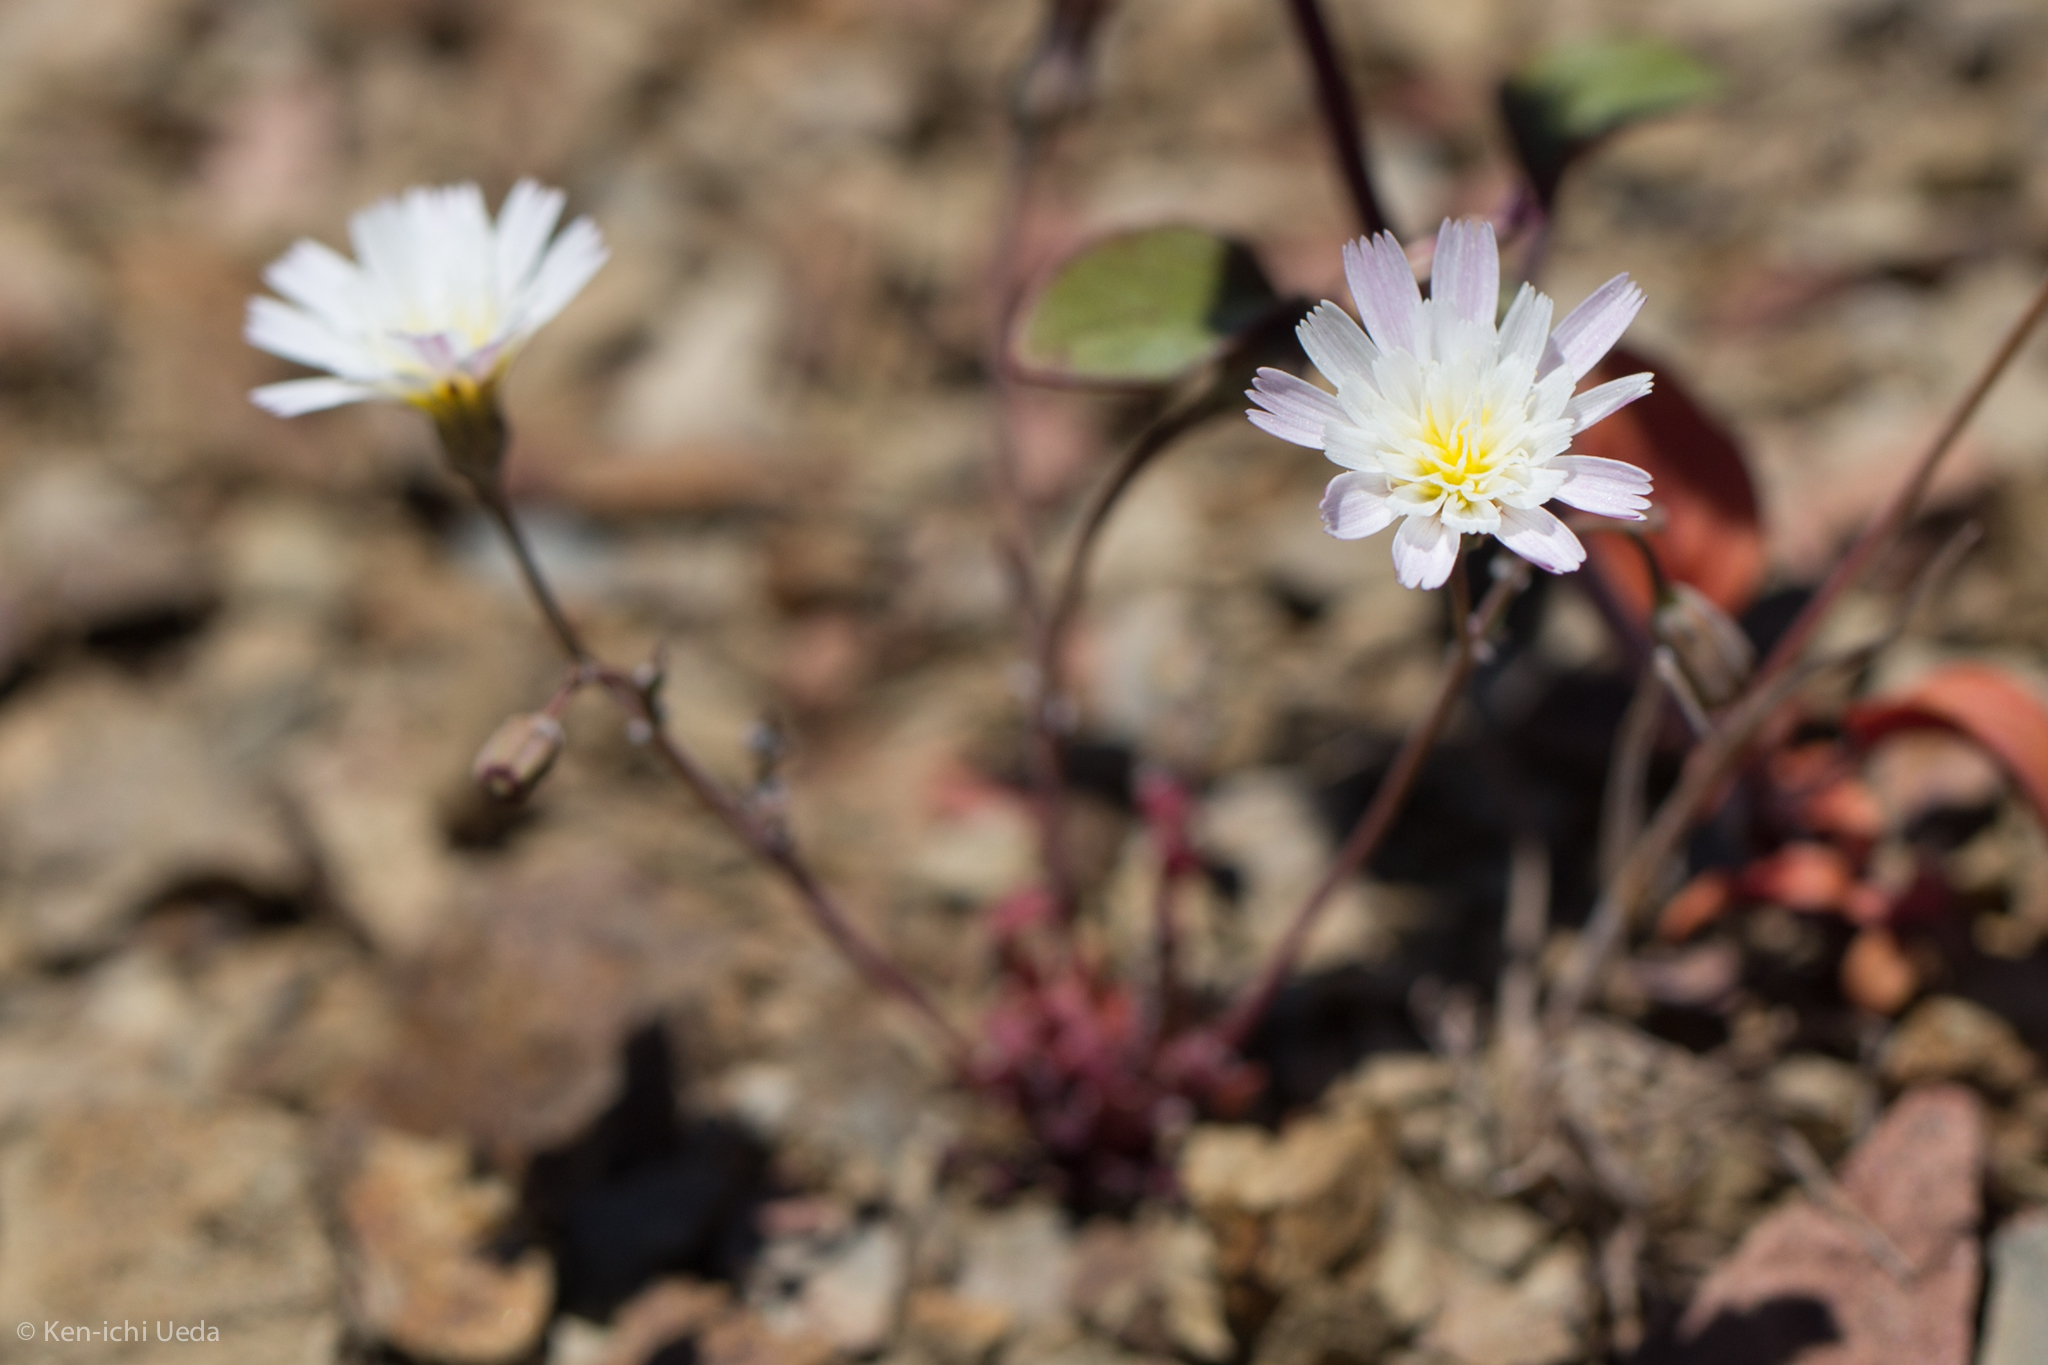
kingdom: Plantae
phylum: Tracheophyta
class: Magnoliopsida
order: Asterales
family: Asteraceae
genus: Malacothrix
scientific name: Malacothrix floccifera
